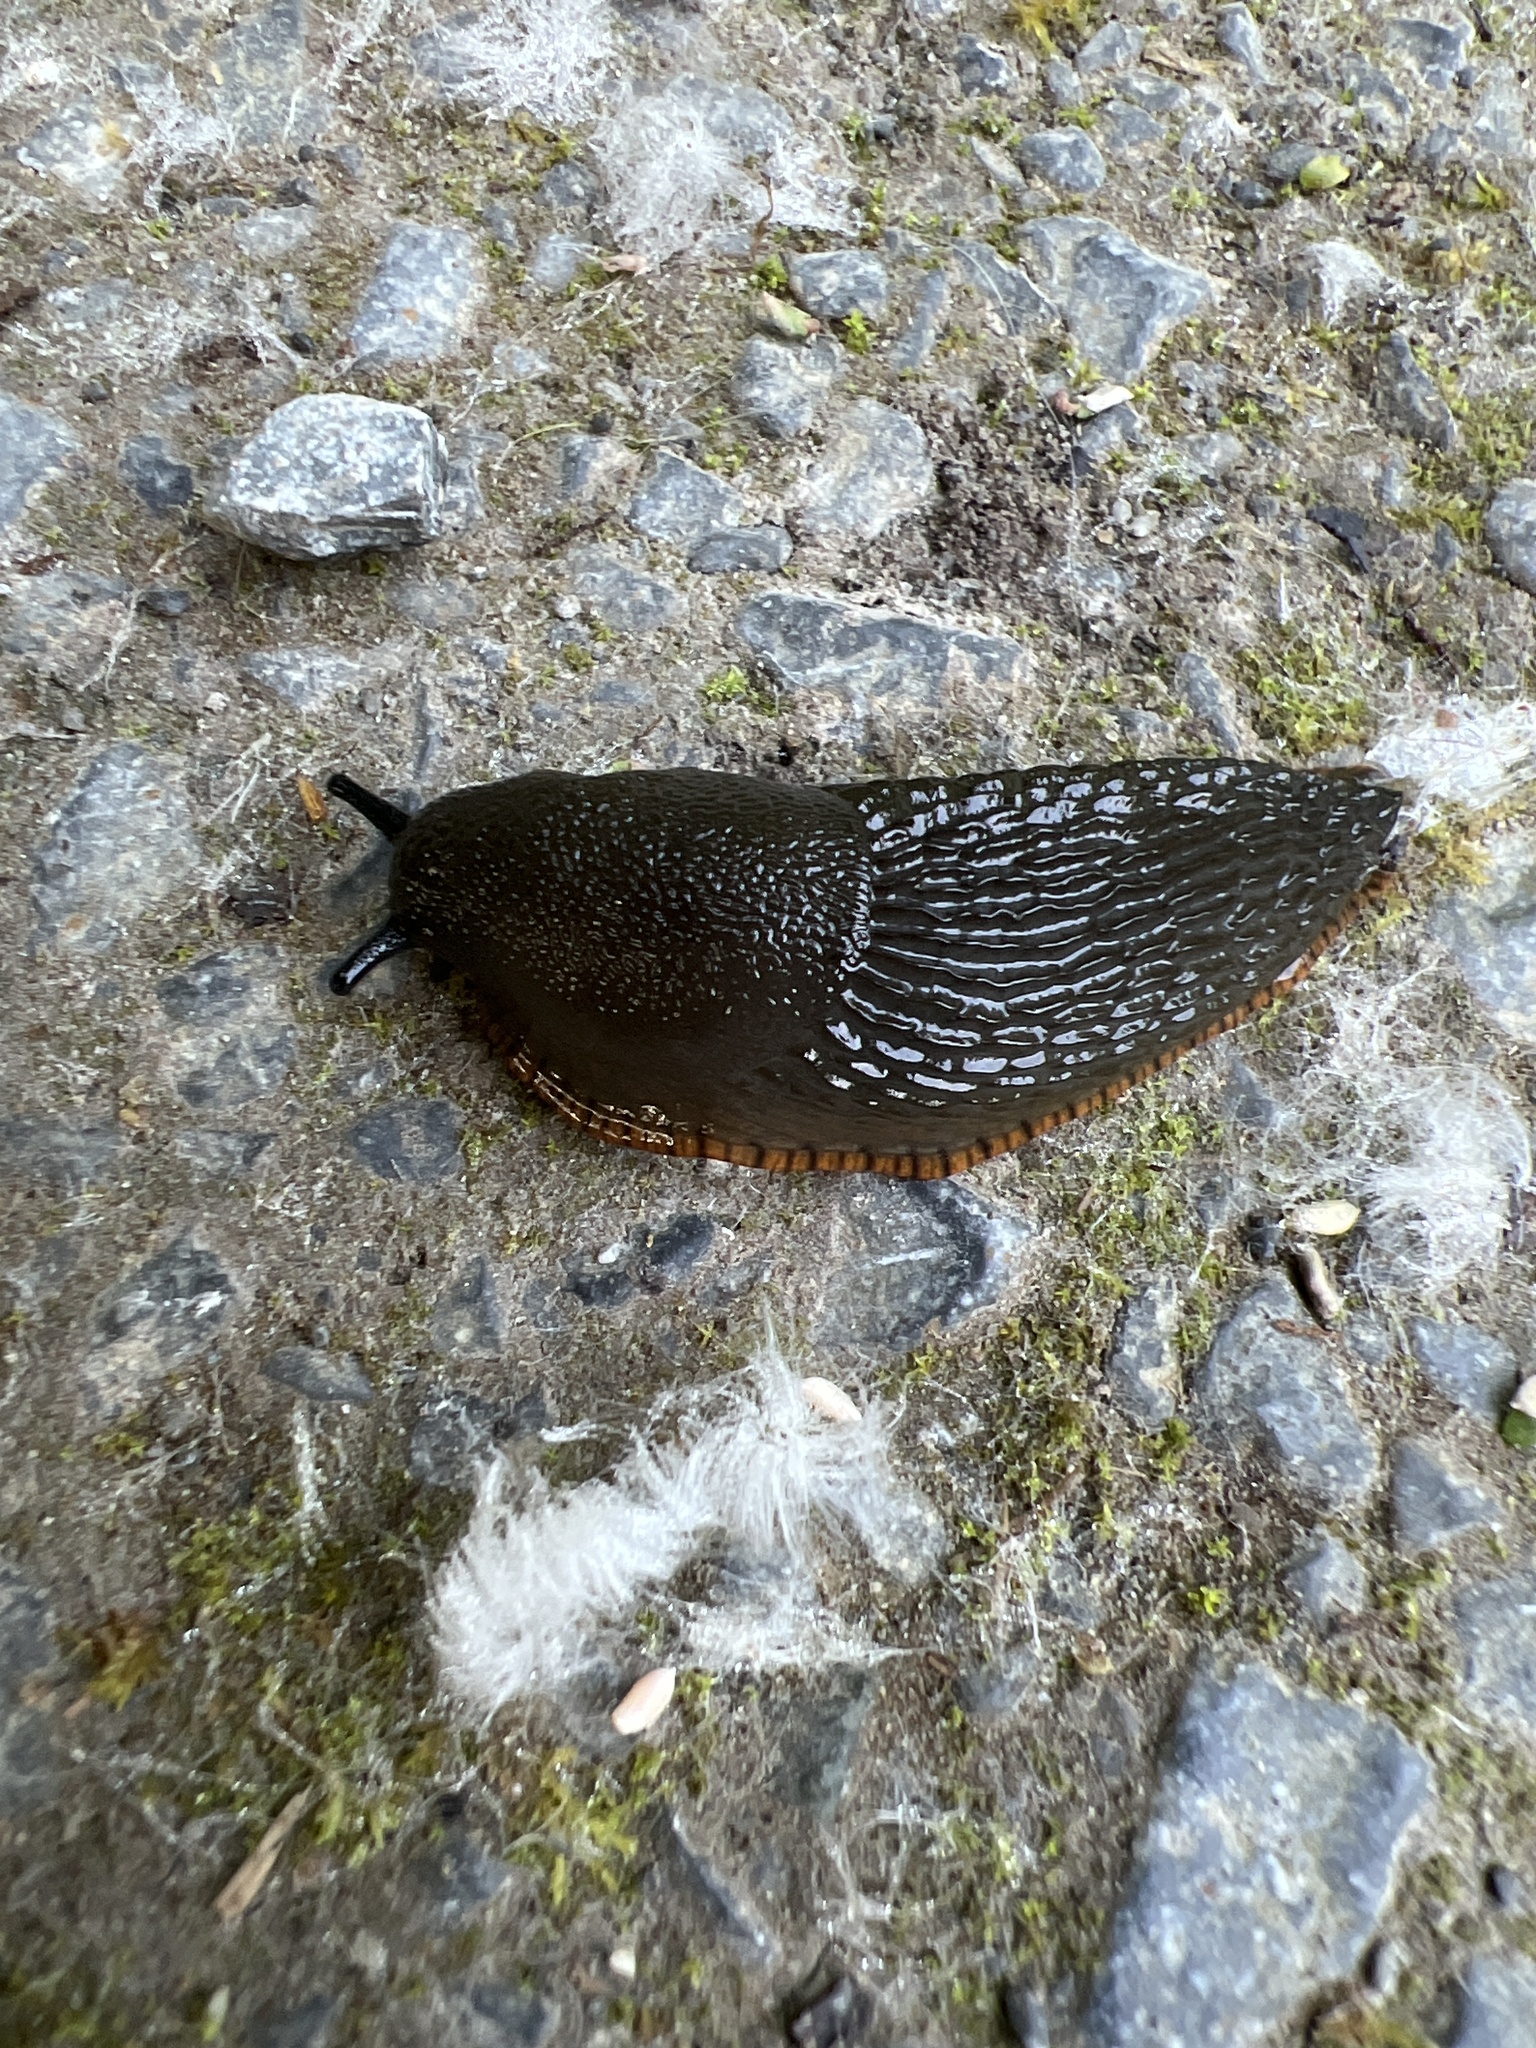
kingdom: Animalia
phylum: Mollusca
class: Gastropoda
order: Stylommatophora
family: Arionidae
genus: Arion
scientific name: Arion
